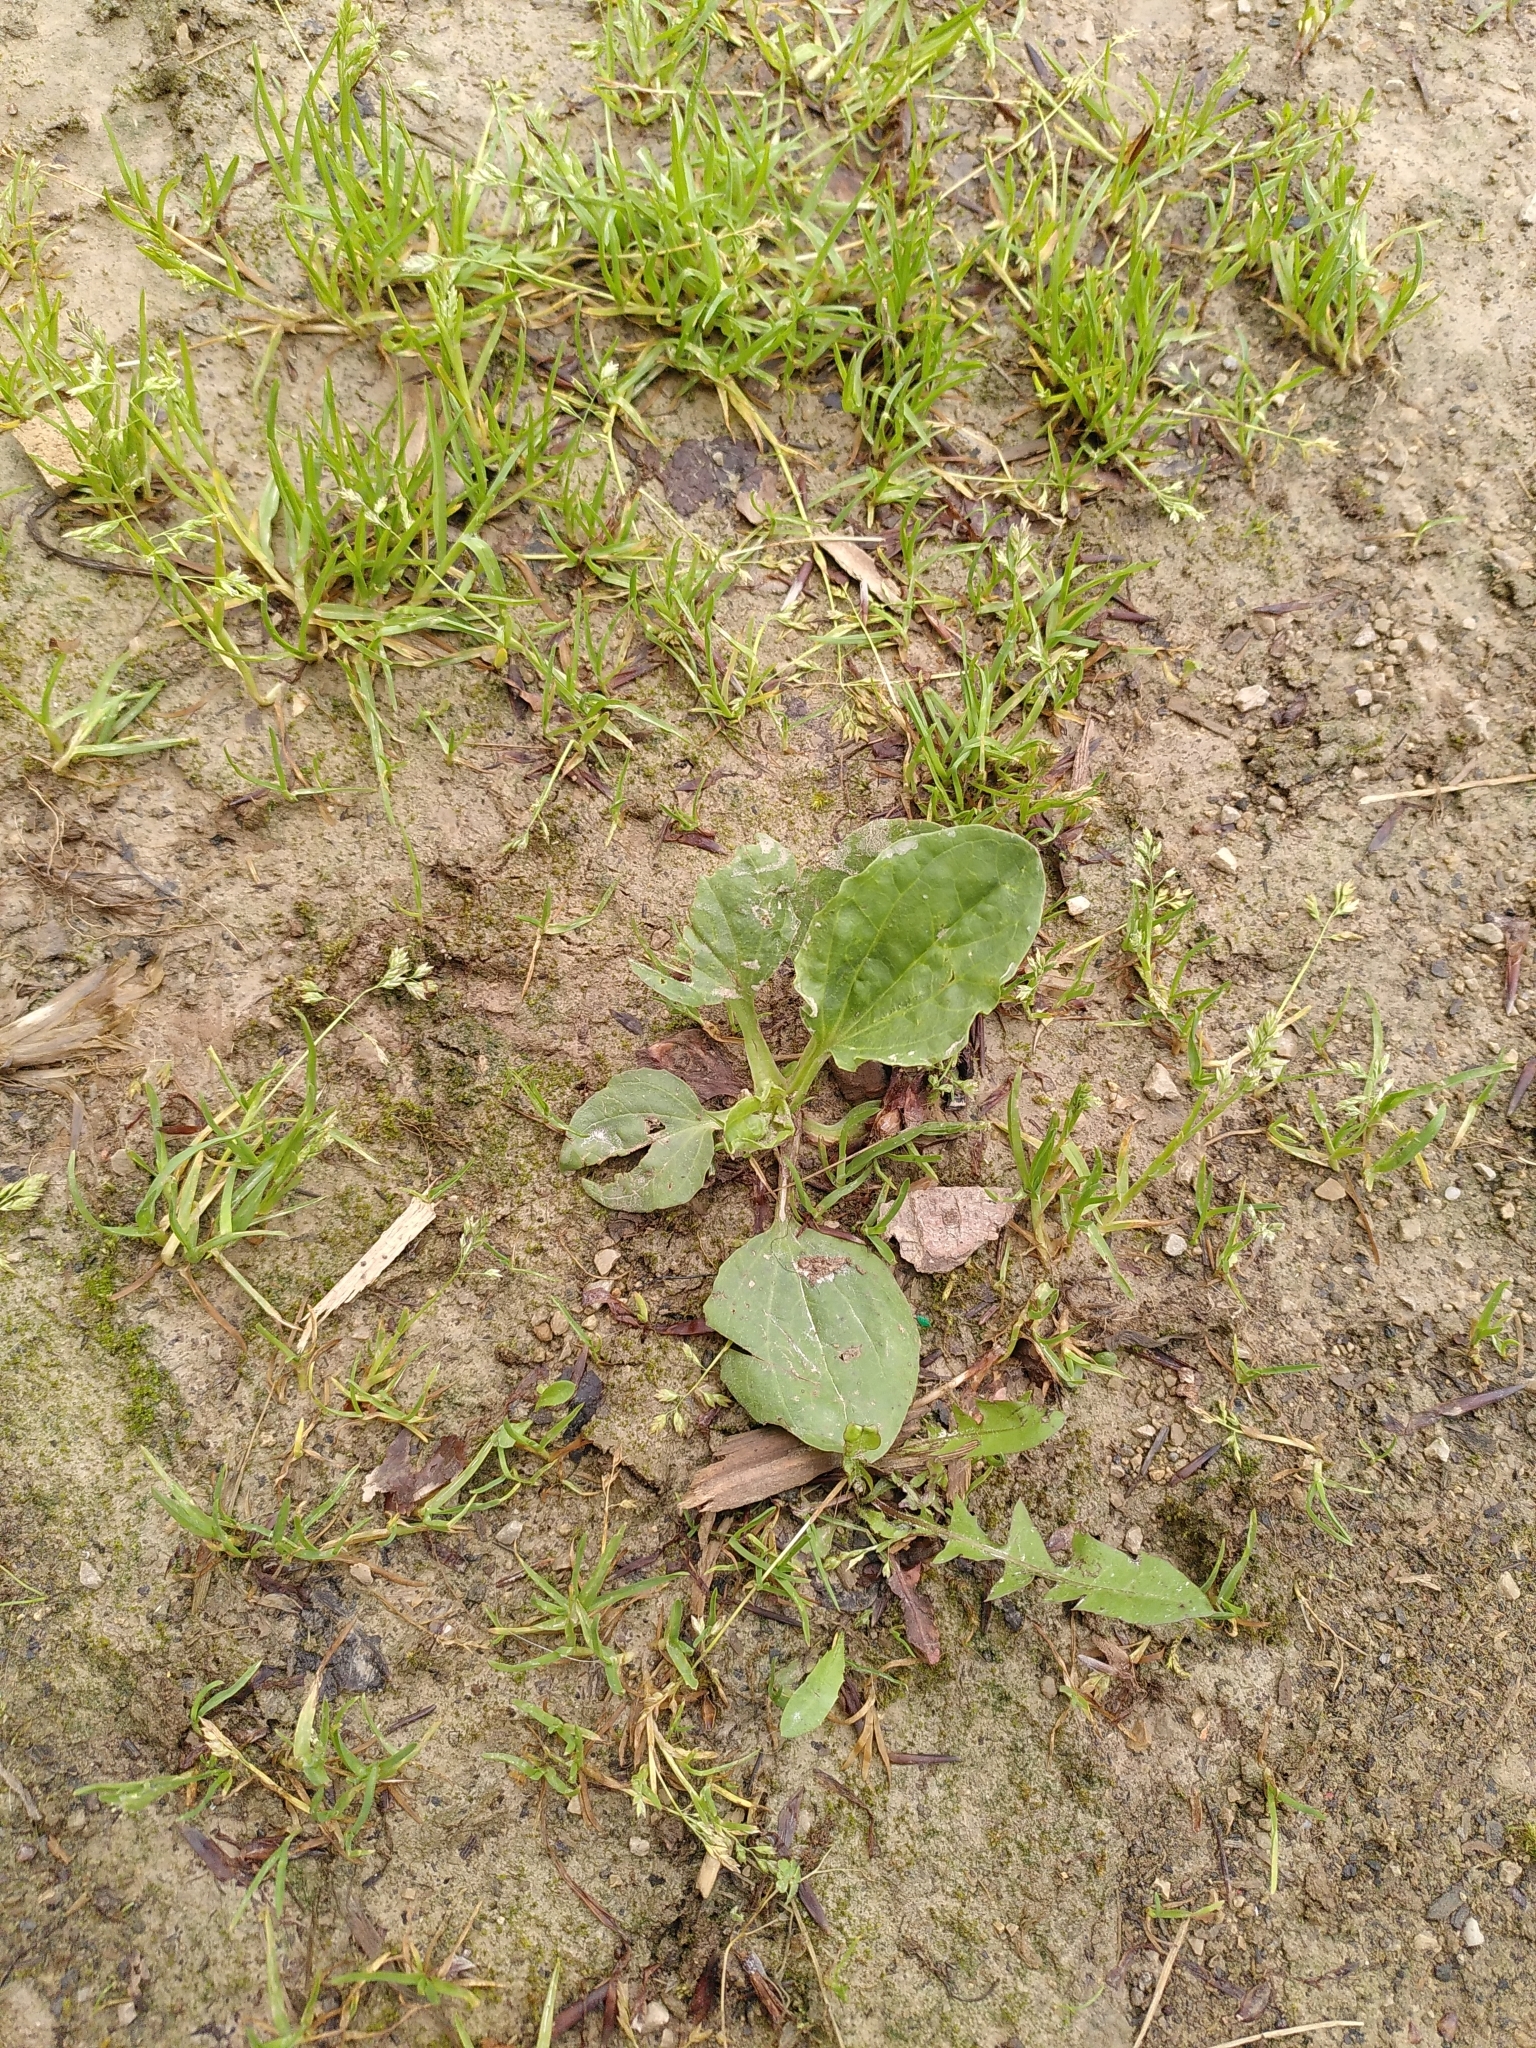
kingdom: Plantae
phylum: Tracheophyta
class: Magnoliopsida
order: Lamiales
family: Plantaginaceae
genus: Plantago
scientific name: Plantago major
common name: Common plantain
